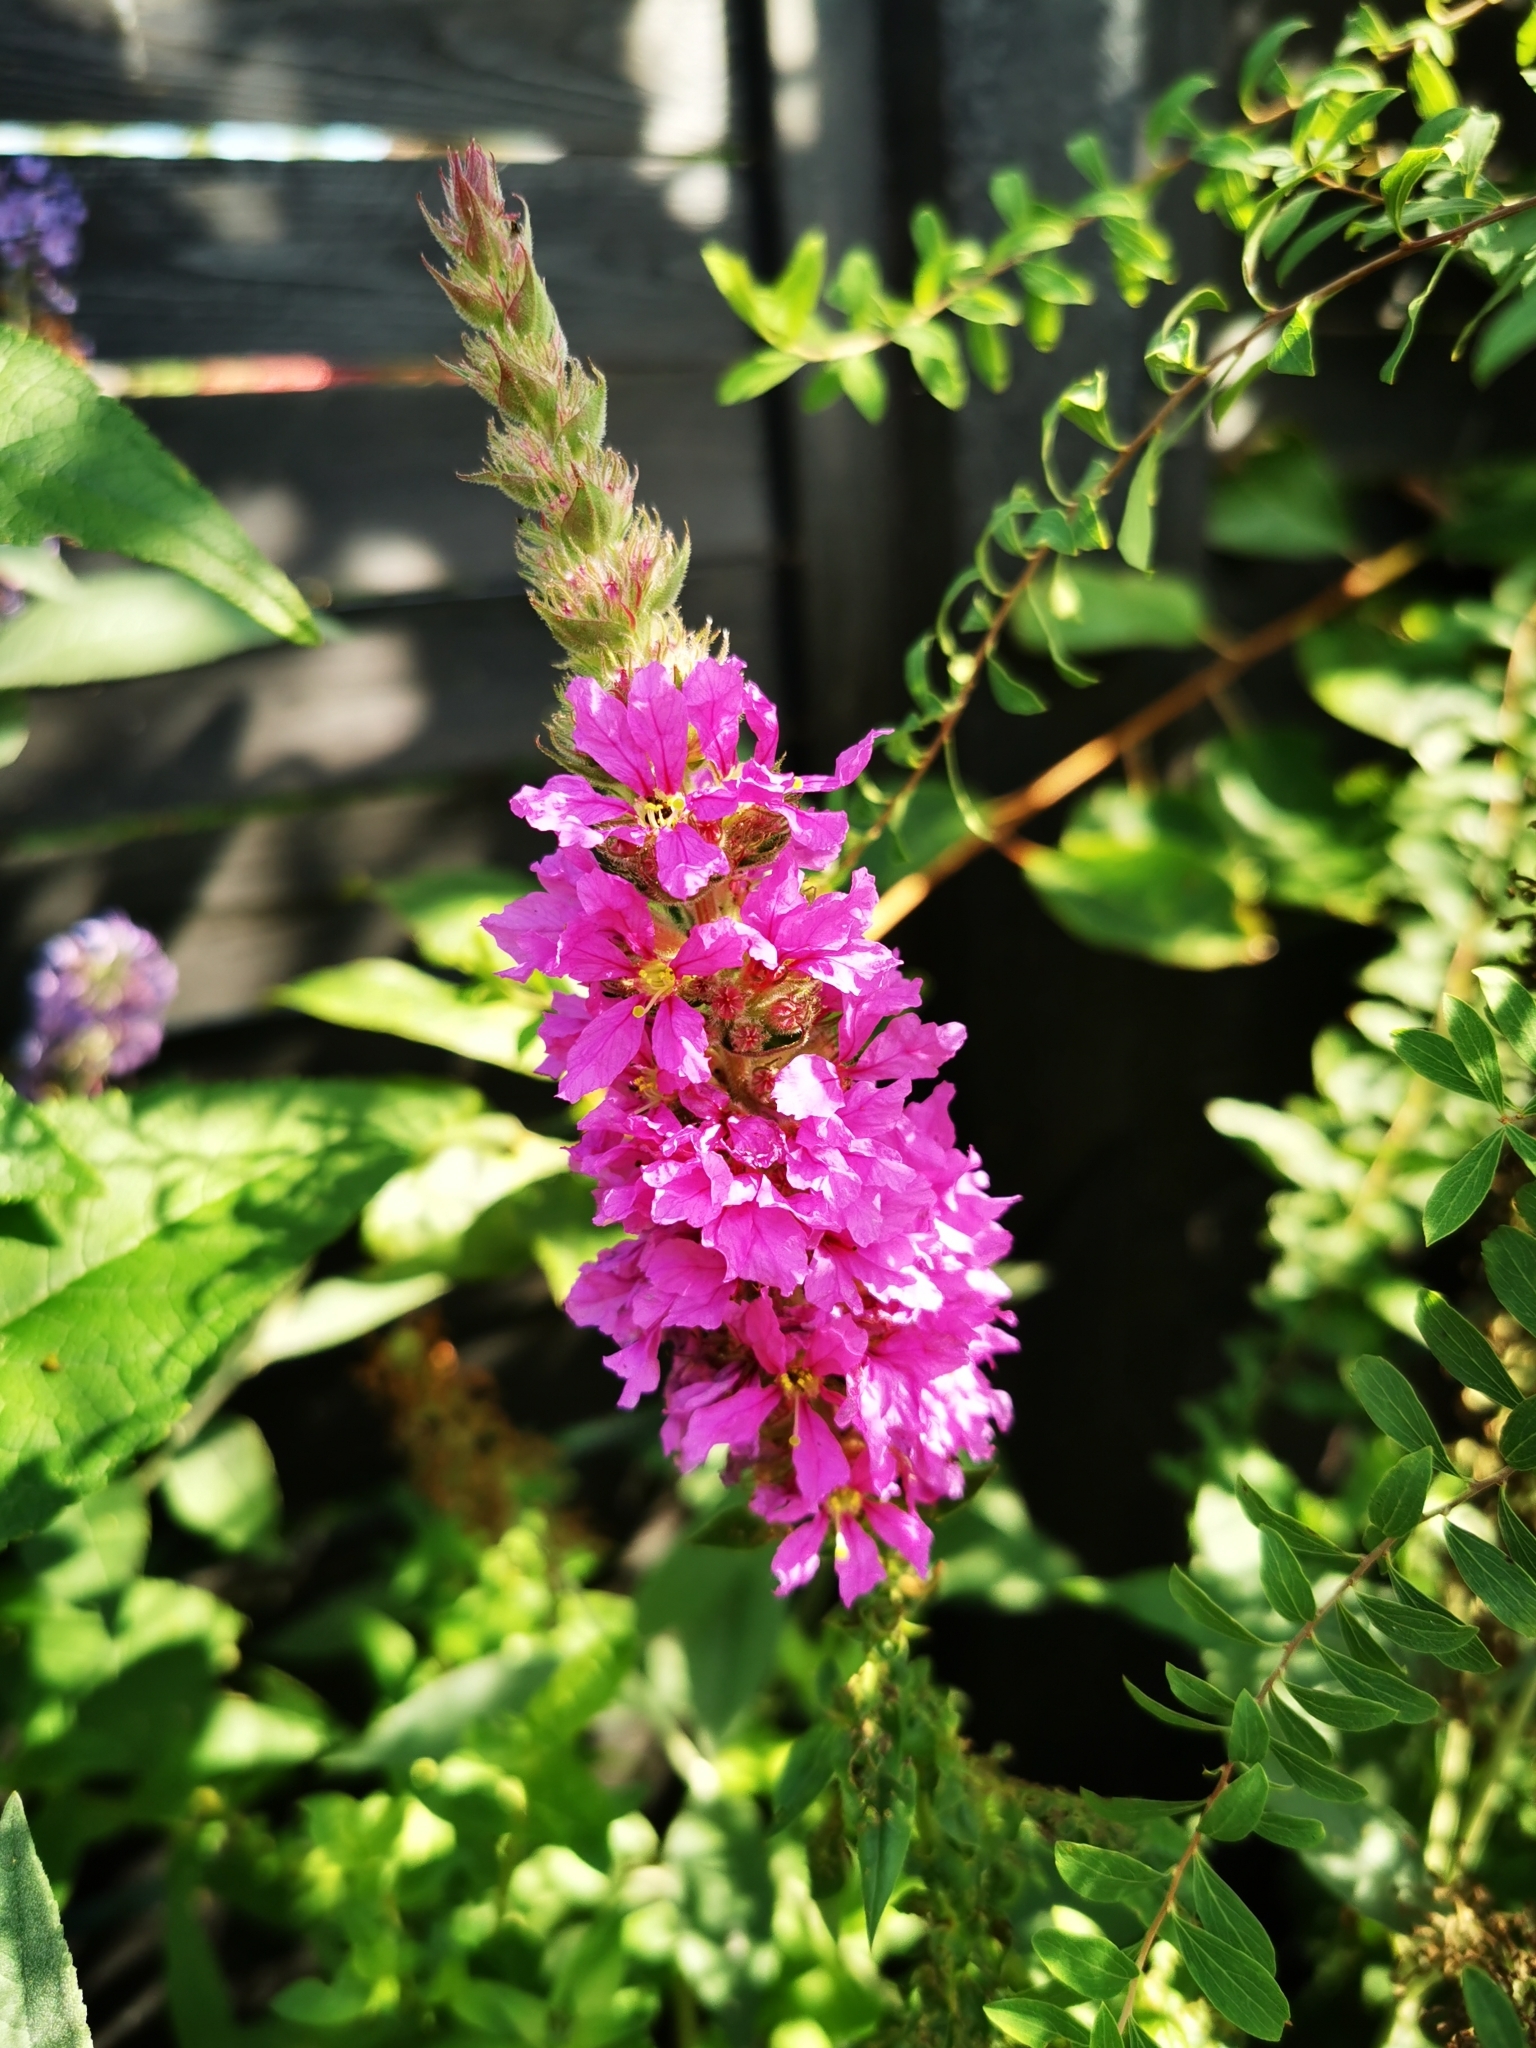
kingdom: Plantae
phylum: Tracheophyta
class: Magnoliopsida
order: Myrtales
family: Lythraceae
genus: Lythrum
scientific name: Lythrum salicaria
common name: Purple loosestrife
